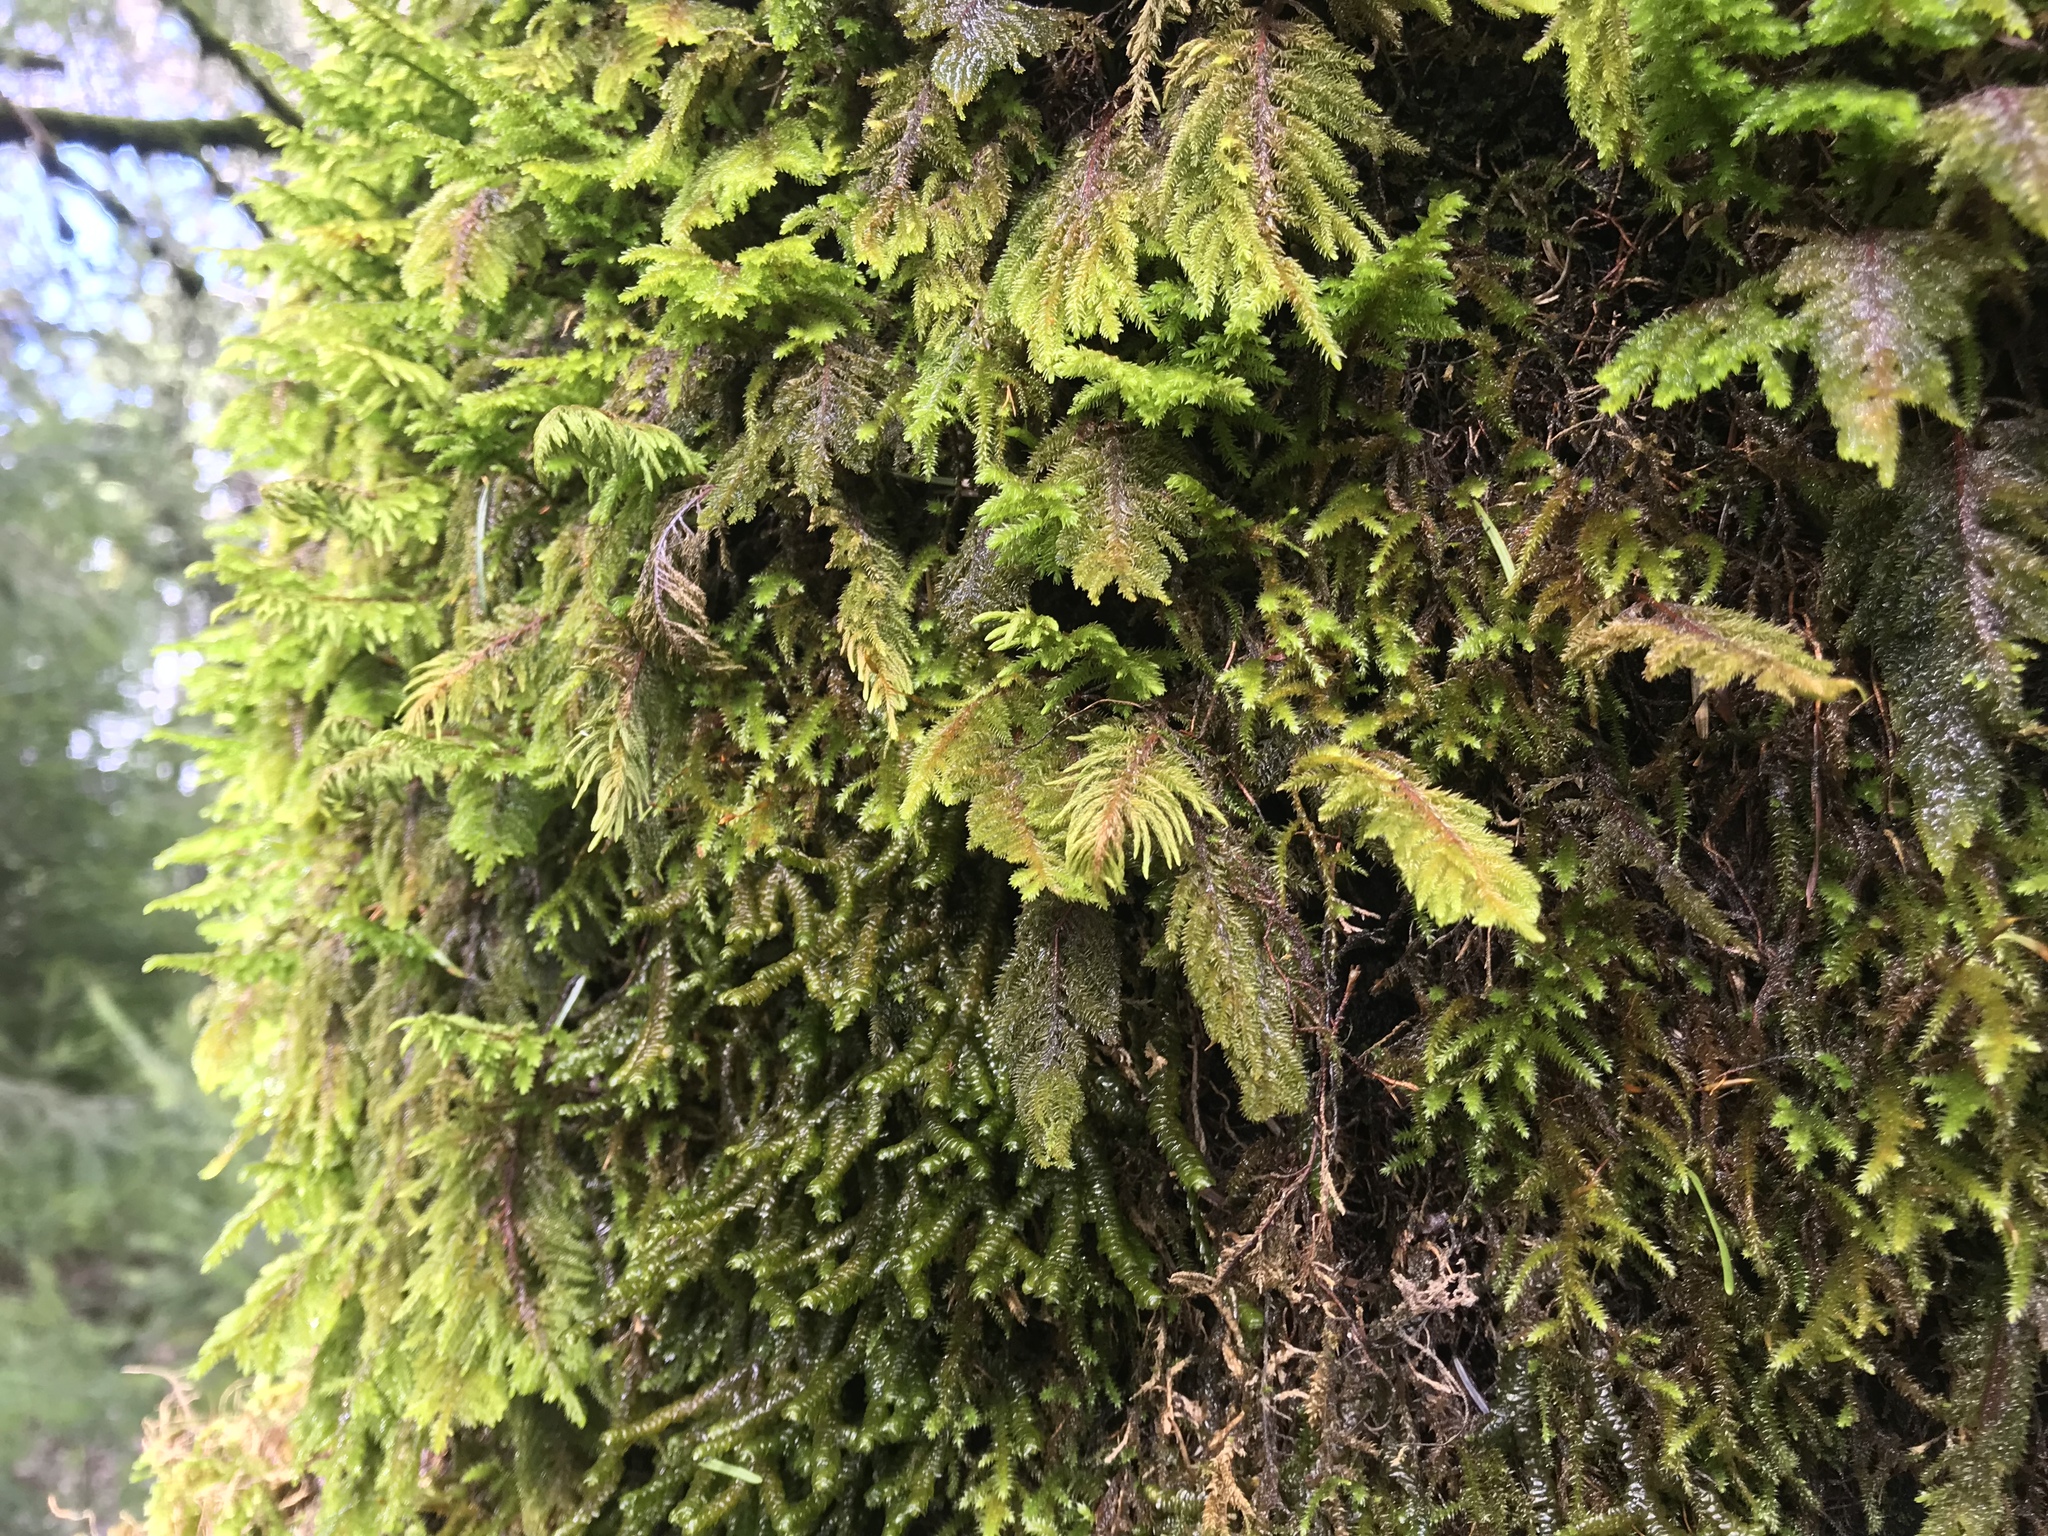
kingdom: Plantae
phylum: Bryophyta
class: Bryopsida
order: Hypnales
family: Cryphaeaceae
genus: Dendroalsia
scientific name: Dendroalsia abietina
